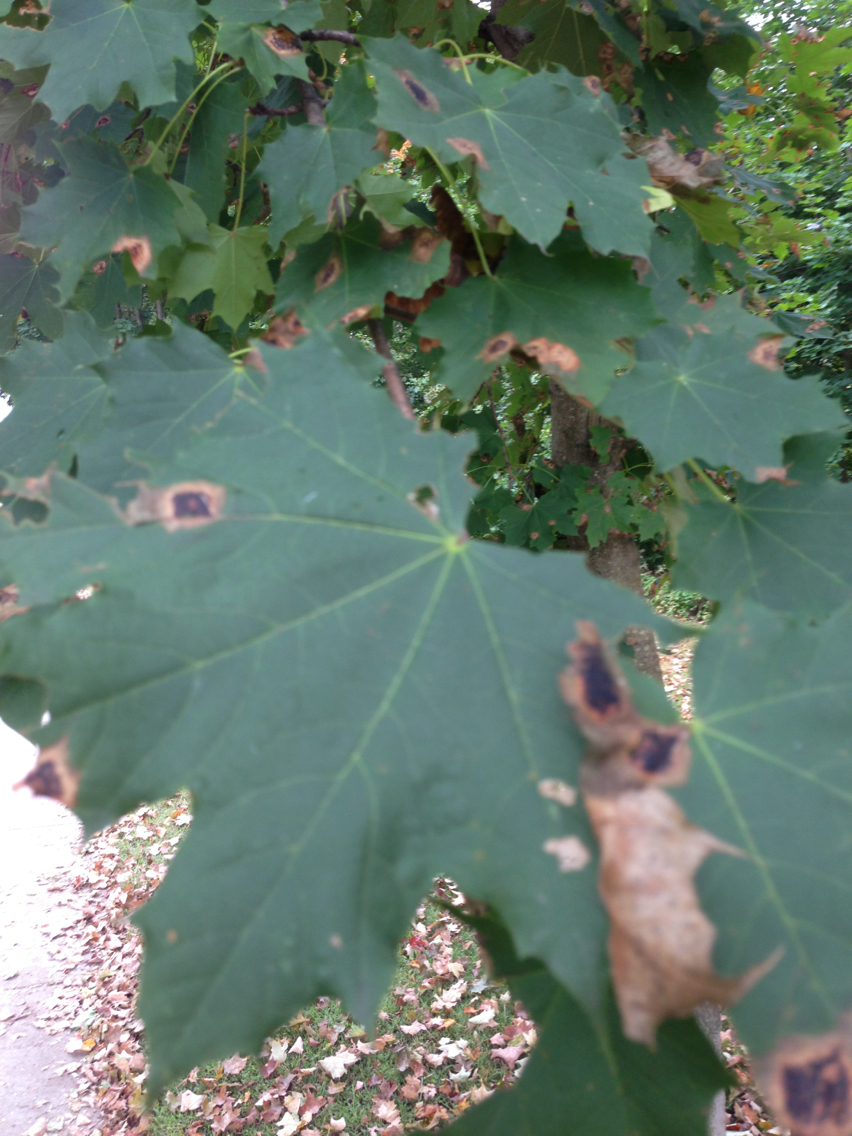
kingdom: Fungi
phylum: Ascomycota
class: Leotiomycetes
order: Rhytismatales
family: Rhytismataceae
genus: Rhytisma
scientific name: Rhytisma acerinum
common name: European tar spot
